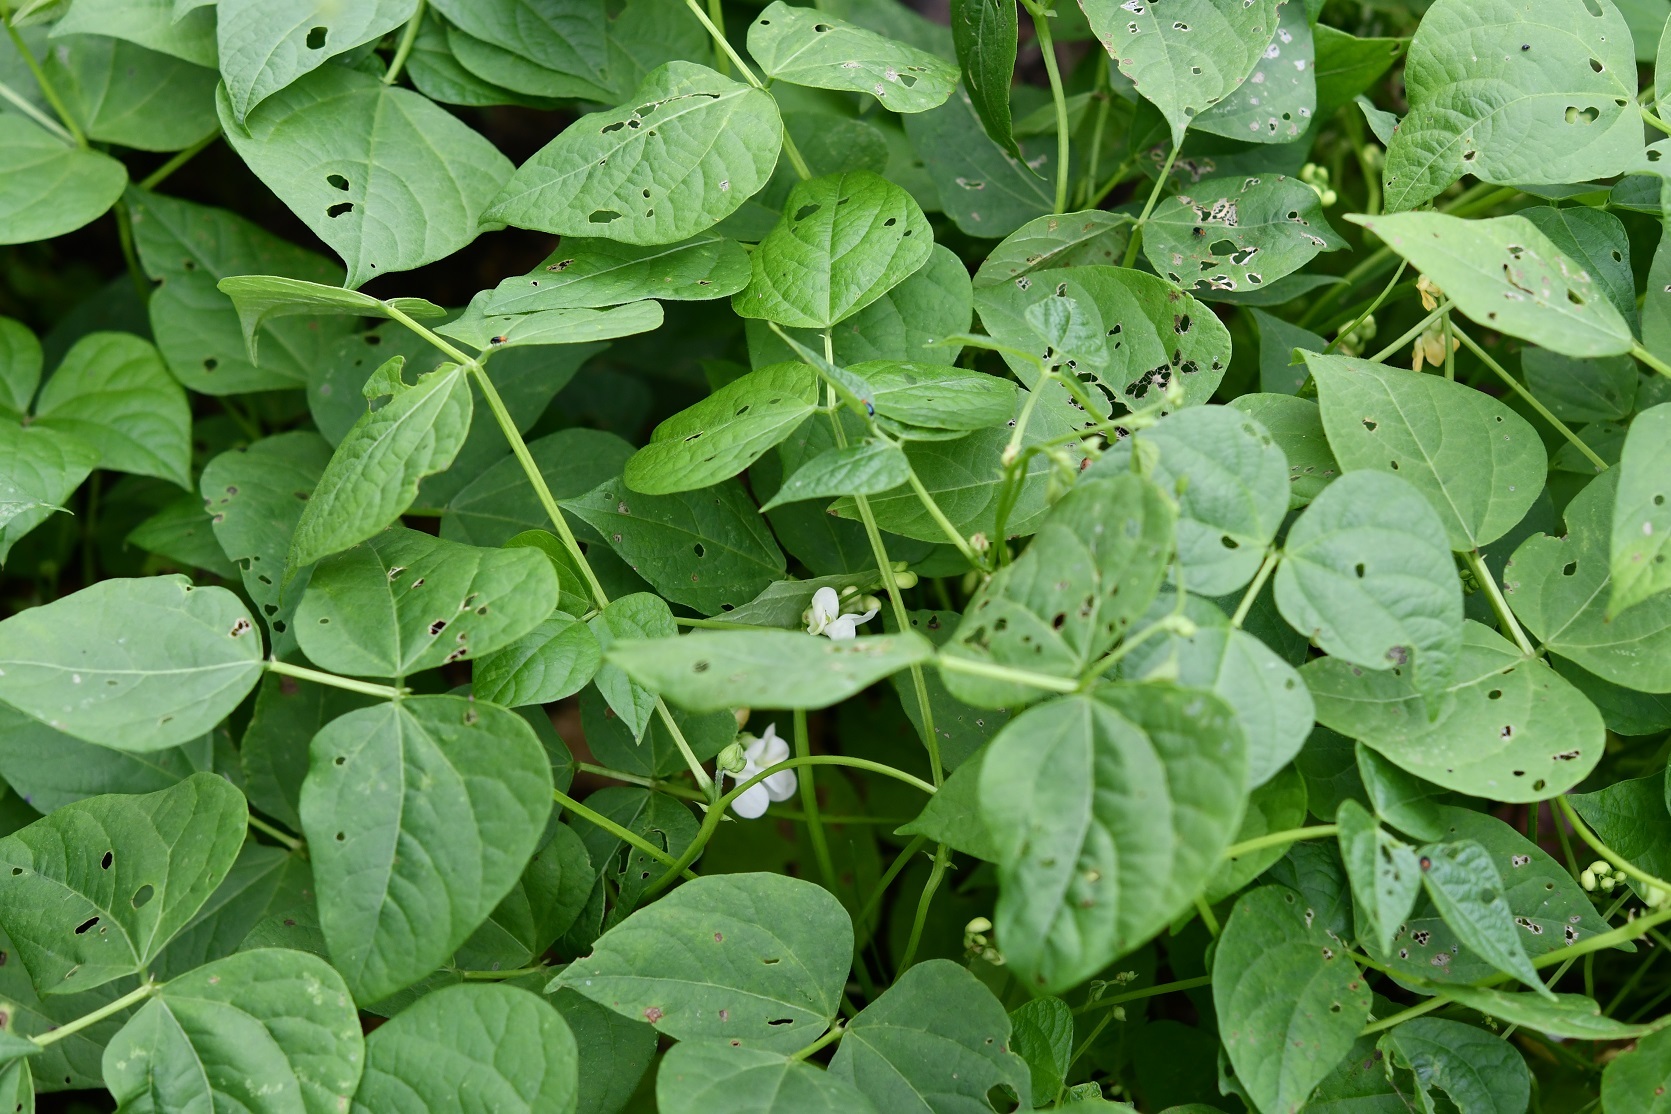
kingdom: Plantae
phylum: Tracheophyta
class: Magnoliopsida
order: Fabales
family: Fabaceae
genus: Phaseolus
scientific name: Phaseolus vulgaris
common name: Bean
